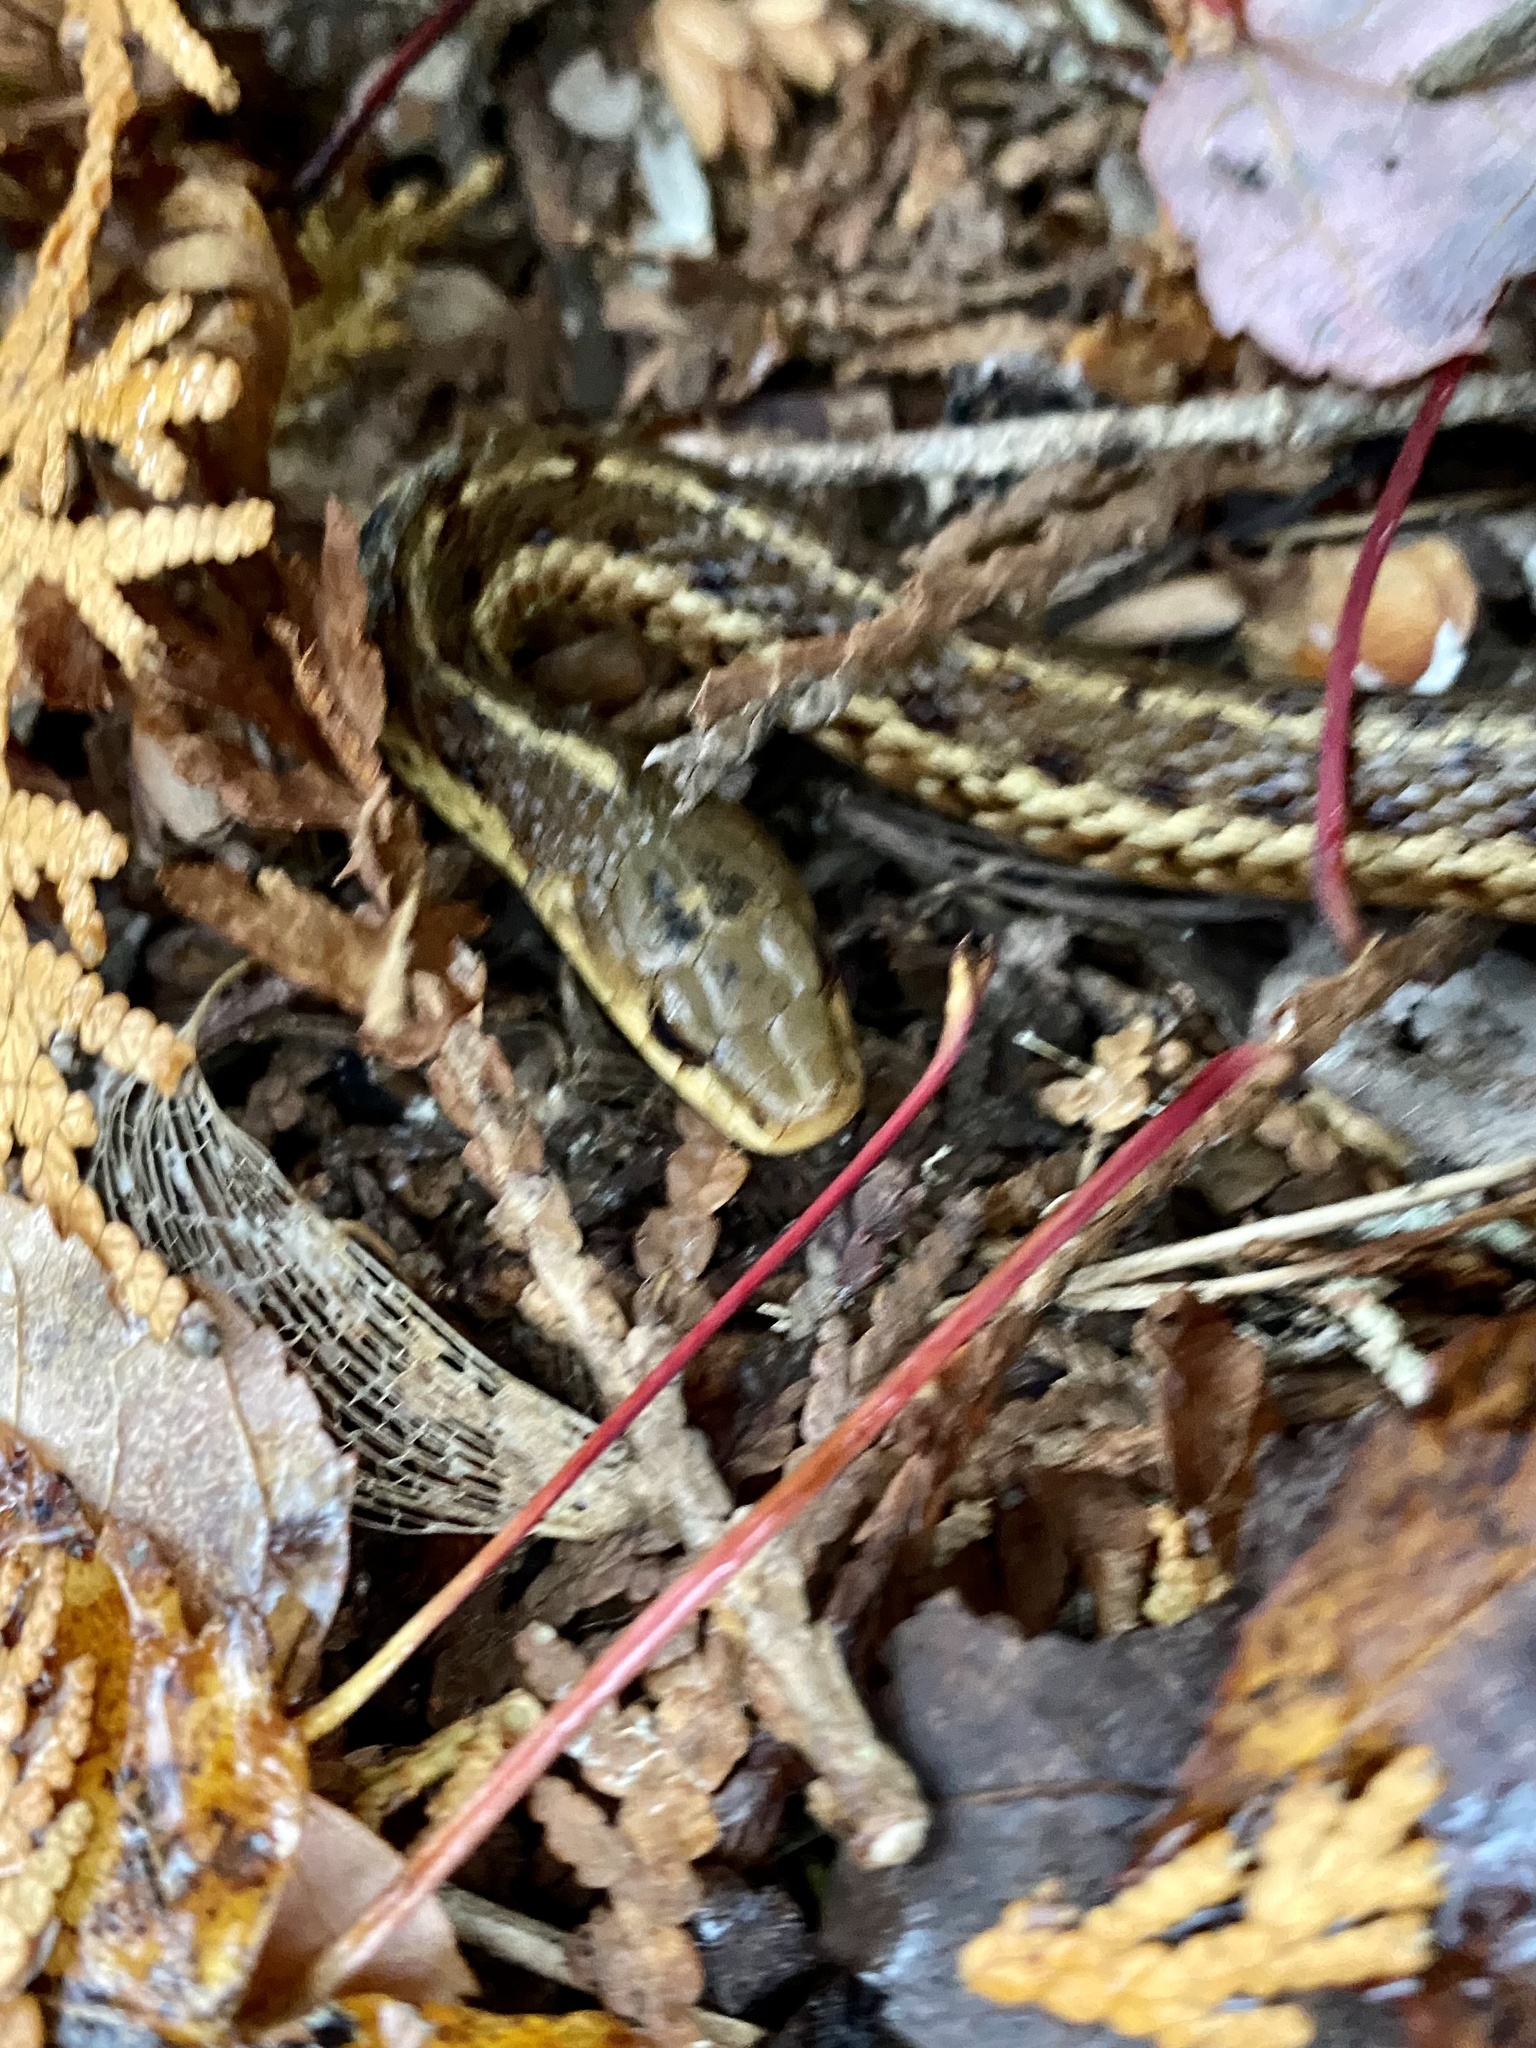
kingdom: Animalia
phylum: Chordata
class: Squamata
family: Colubridae
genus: Thamnophis
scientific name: Thamnophis sirtalis
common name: Common garter snake
